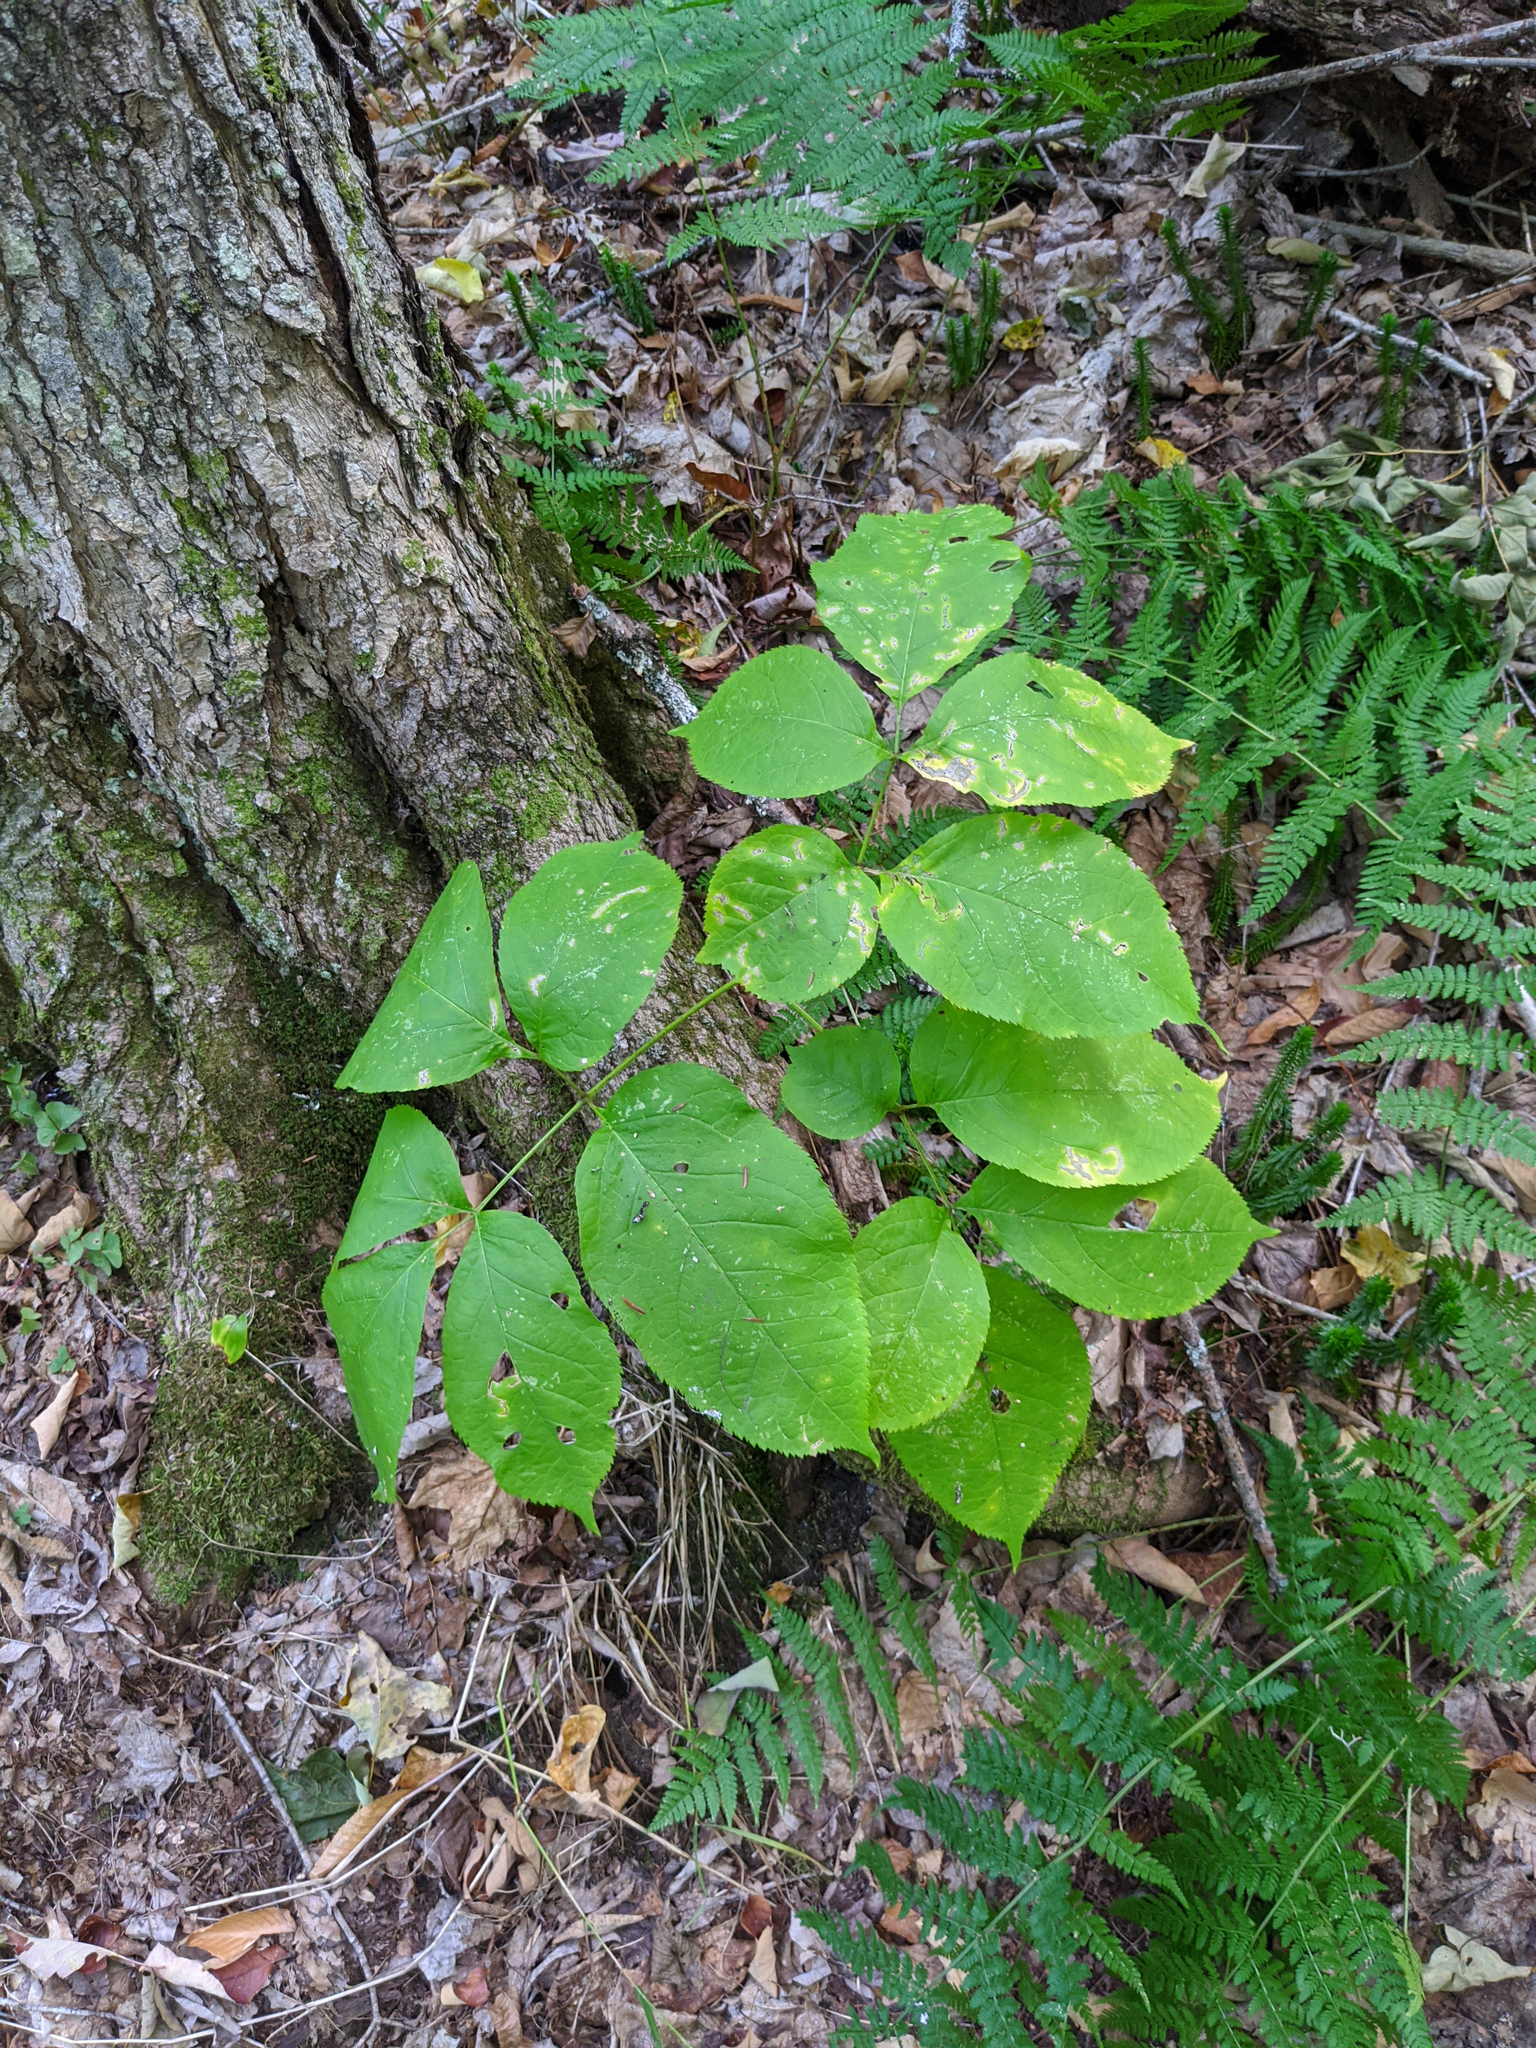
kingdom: Plantae
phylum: Tracheophyta
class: Magnoliopsida
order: Apiales
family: Araliaceae
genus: Aralia
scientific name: Aralia nudicaulis
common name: Wild sarsaparilla
